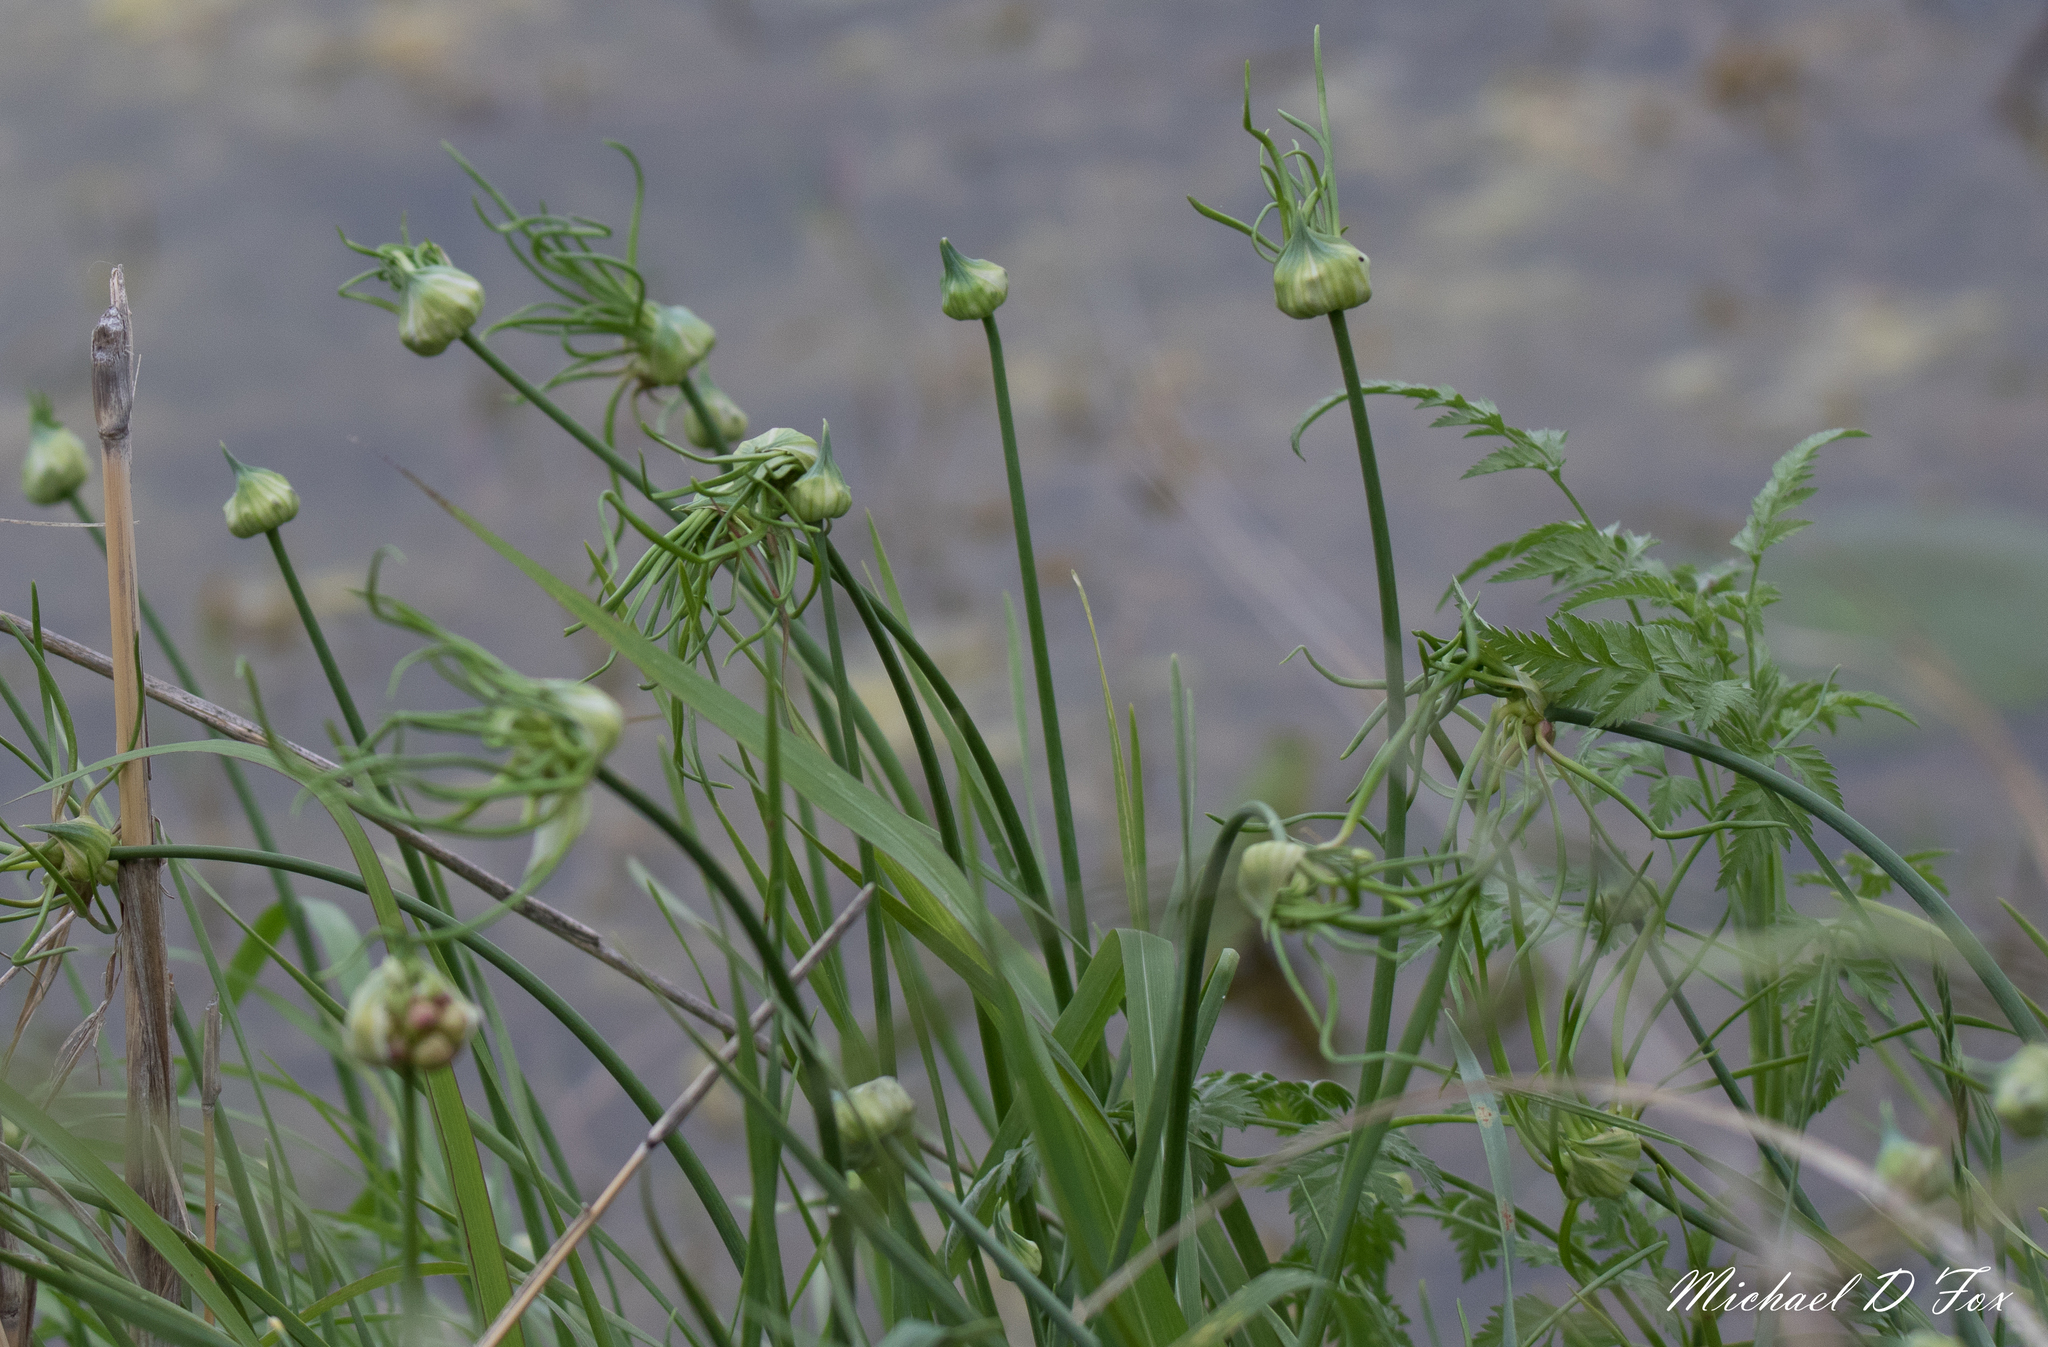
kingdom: Plantae
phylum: Tracheophyta
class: Liliopsida
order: Asparagales
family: Amaryllidaceae
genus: Allium
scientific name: Allium canadense
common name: Meadow garlic
